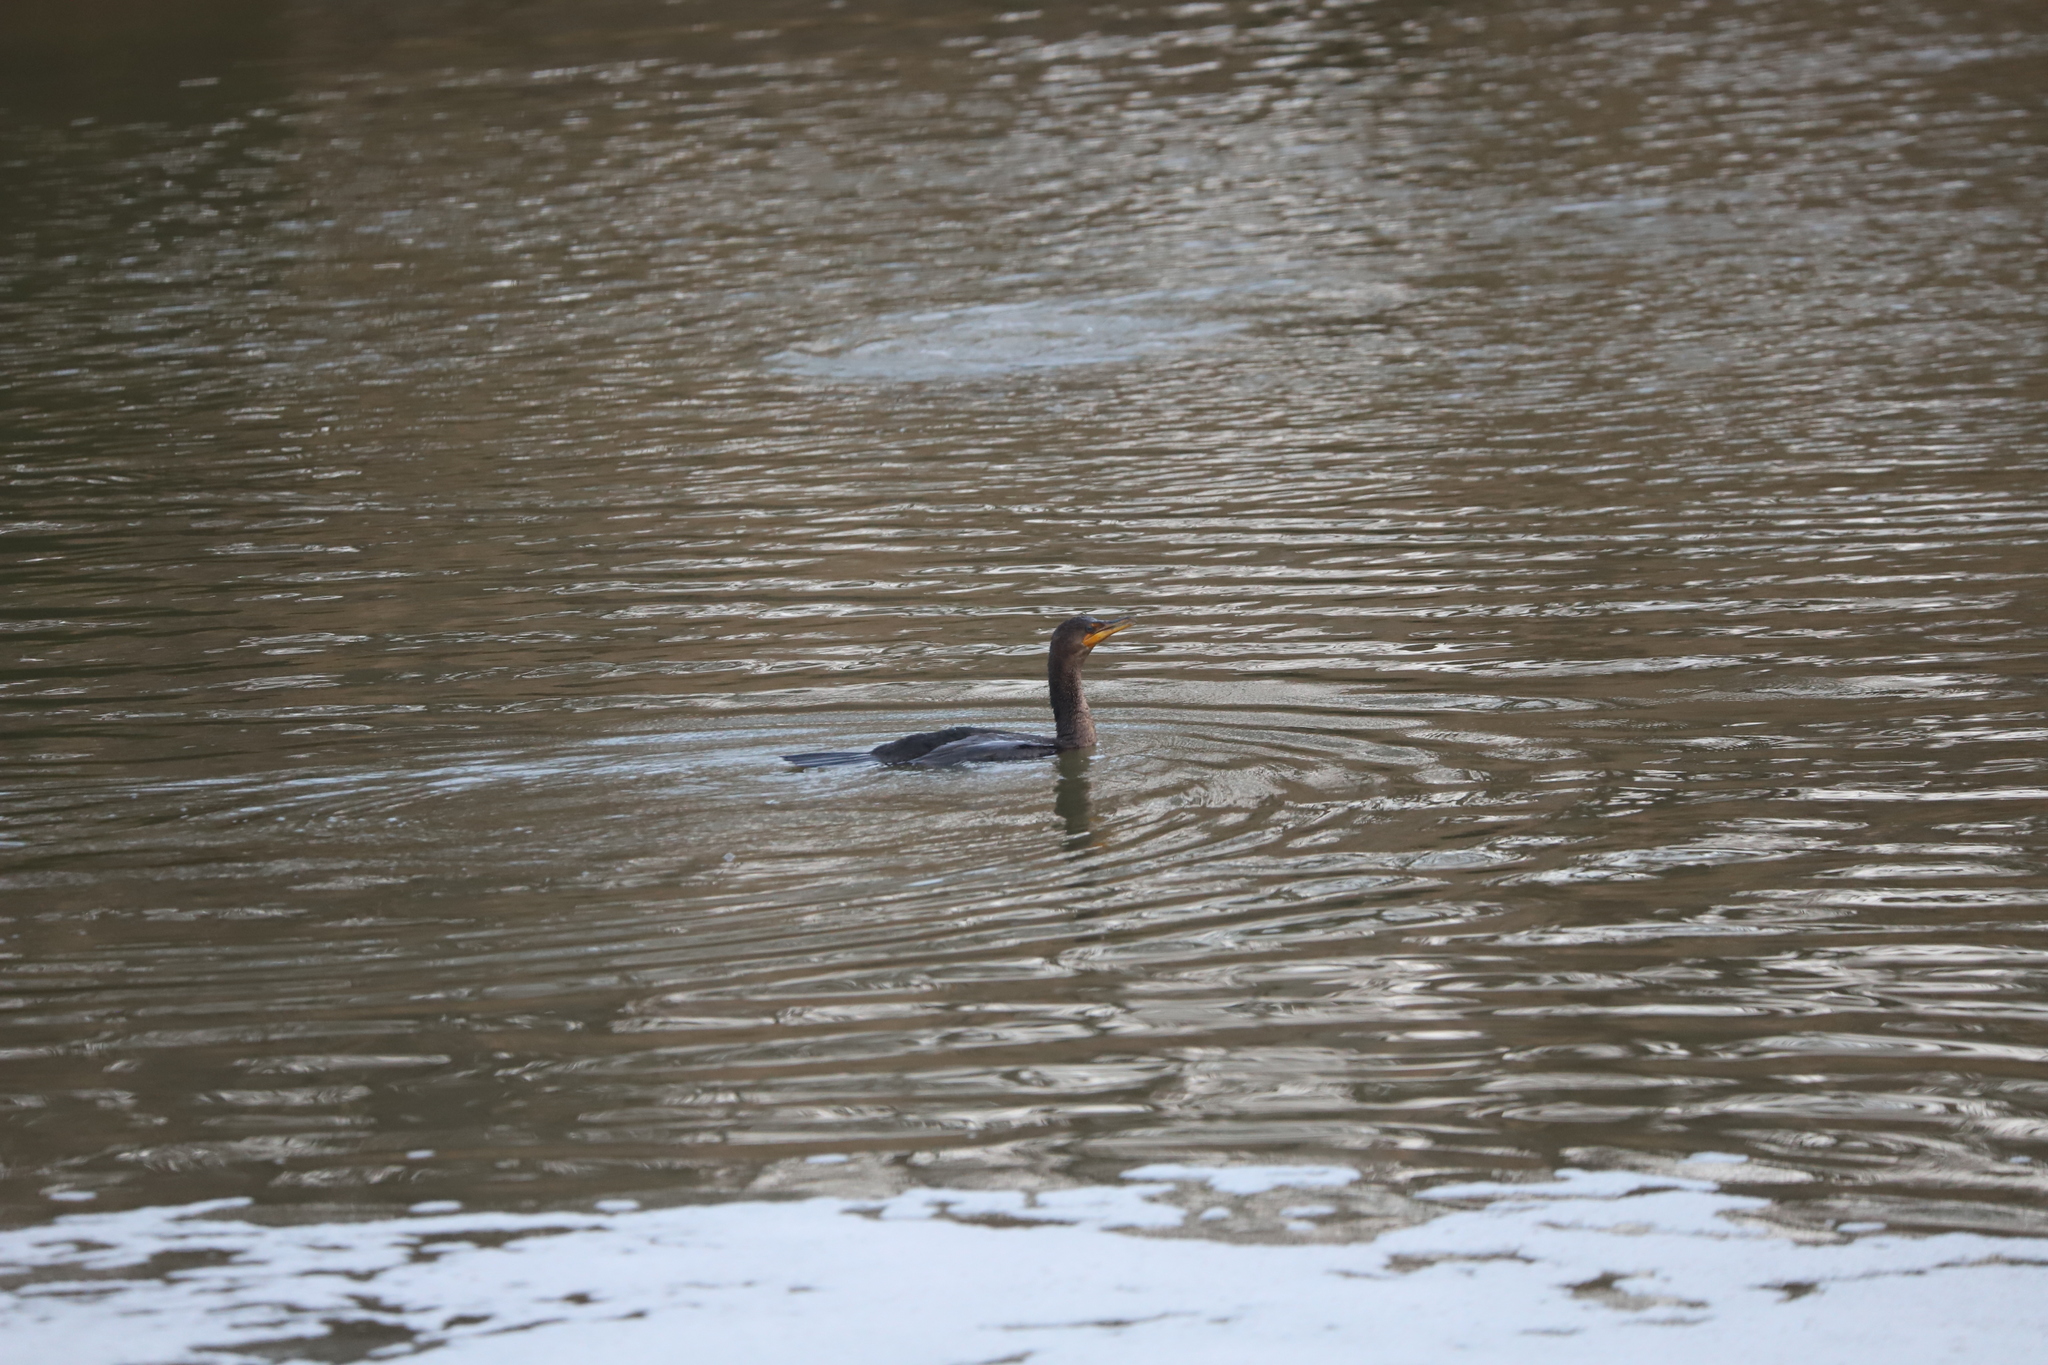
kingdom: Animalia
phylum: Chordata
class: Aves
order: Suliformes
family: Phalacrocoracidae
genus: Phalacrocorax
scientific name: Phalacrocorax auritus
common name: Double-crested cormorant
